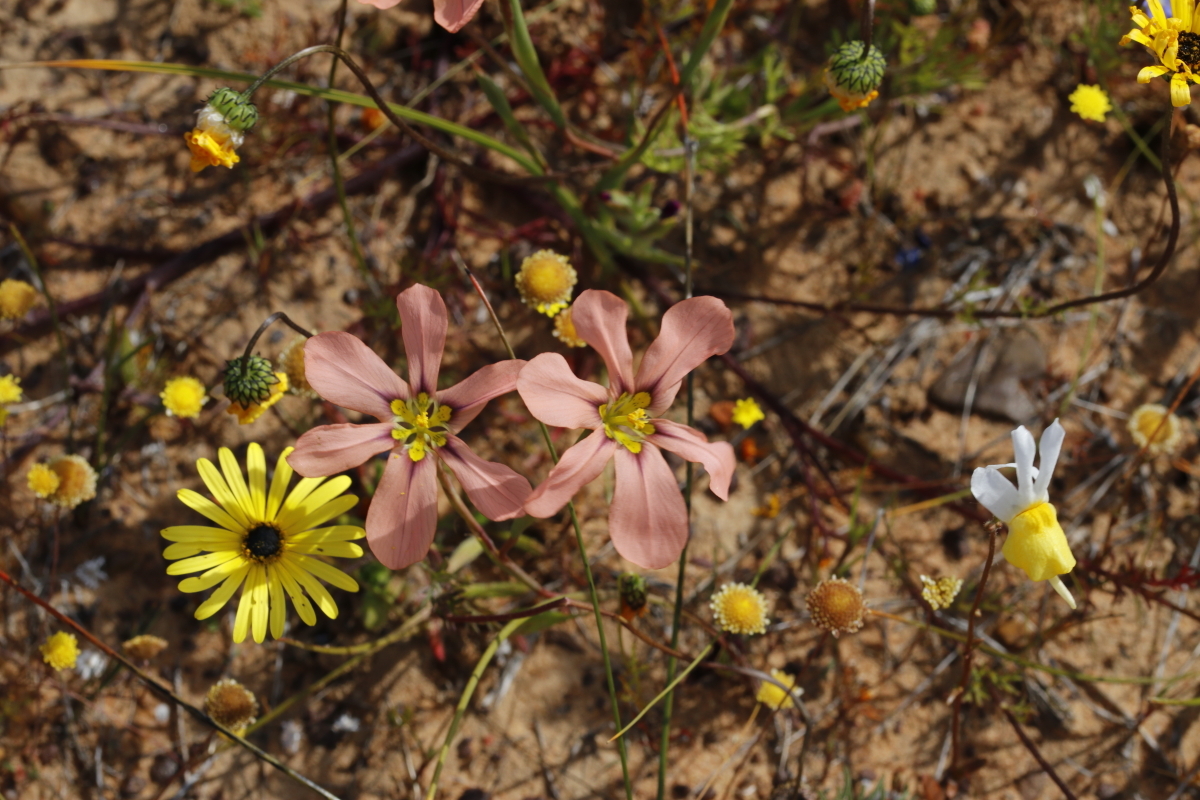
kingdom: Plantae
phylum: Tracheophyta
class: Liliopsida
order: Asparagales
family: Iridaceae
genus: Moraea
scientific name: Moraea vallisbelli
